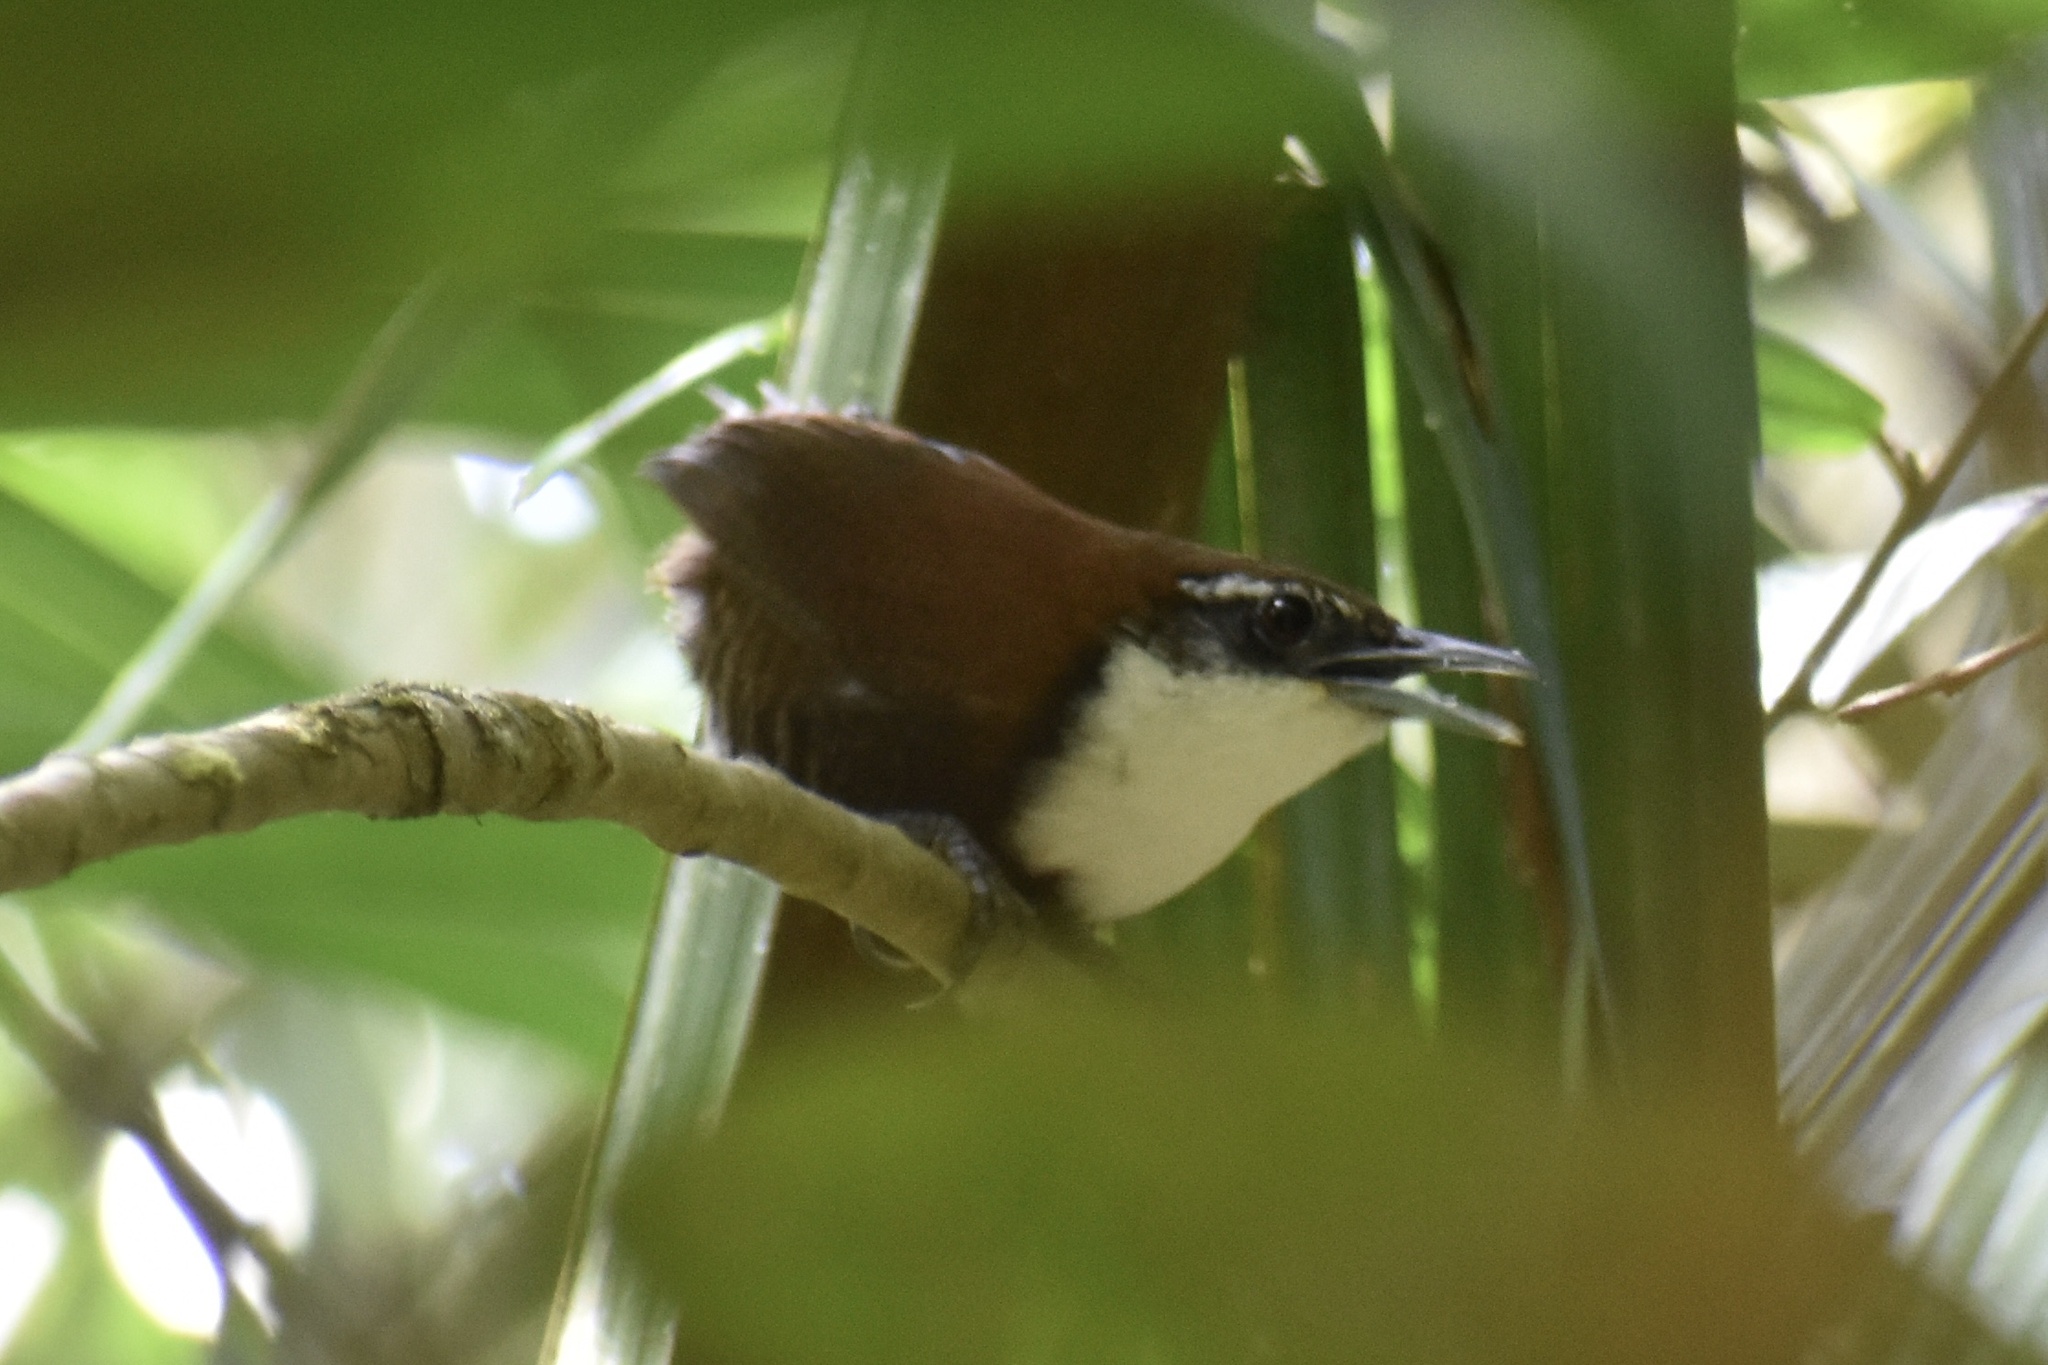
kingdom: Animalia
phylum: Chordata
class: Aves
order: Passeriformes
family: Troglodytidae
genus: Pheugopedius
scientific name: Pheugopedius fasciatoventris
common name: Black-bellied wren
